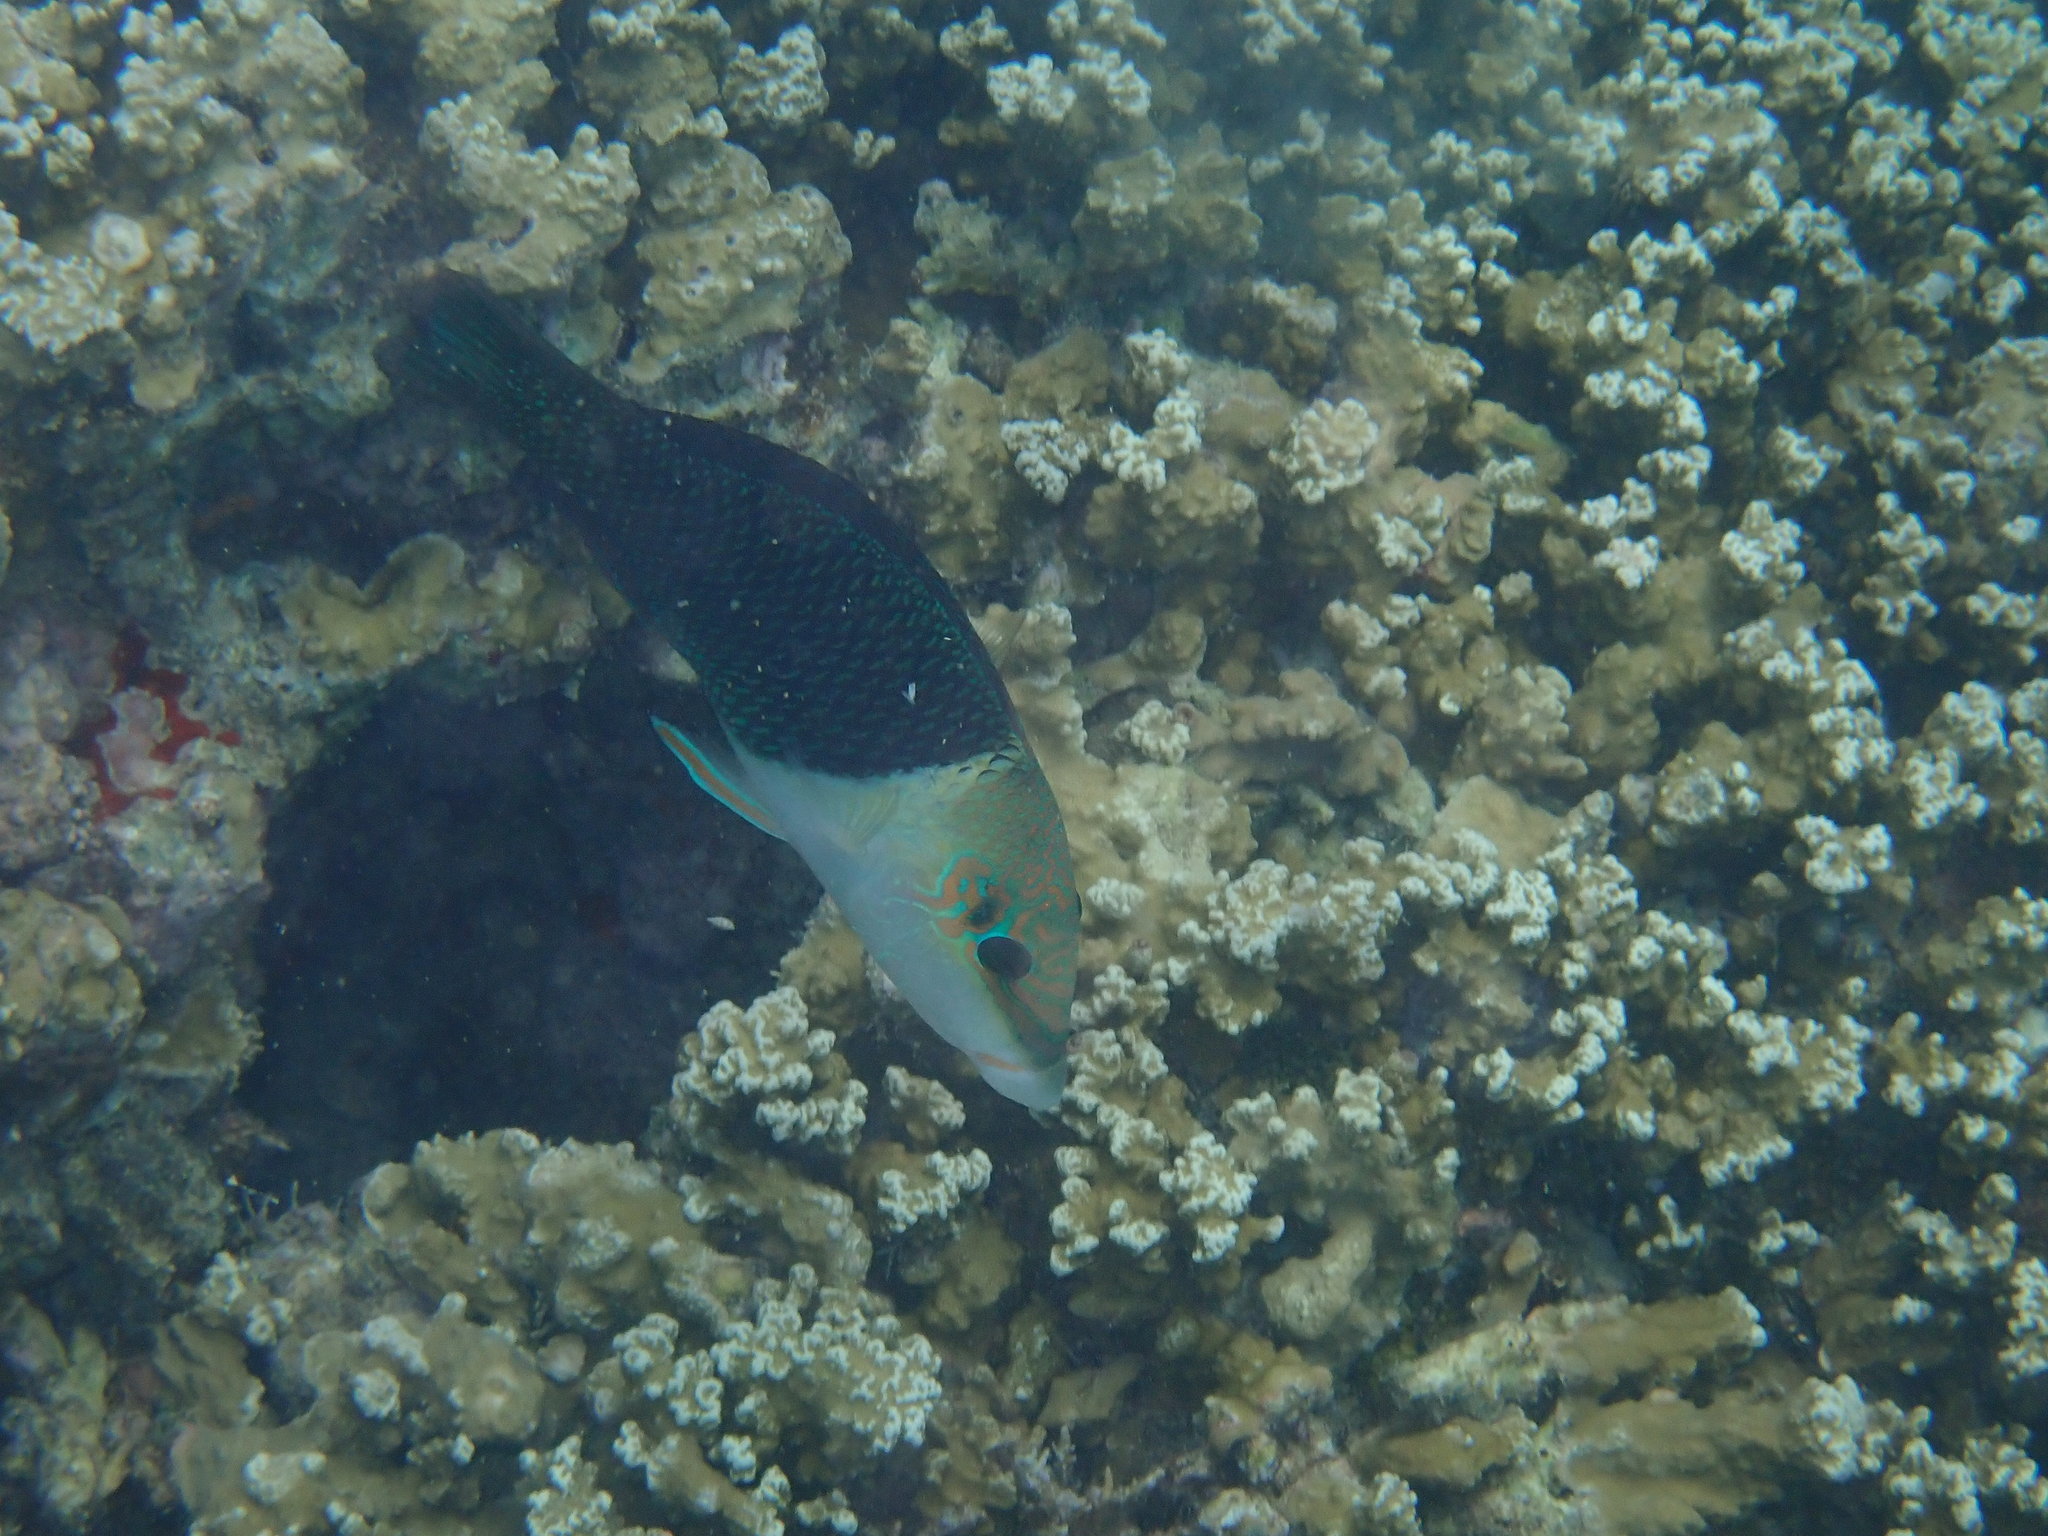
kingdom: Animalia
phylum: Chordata
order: Perciformes
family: Labridae
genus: Hemigymnus
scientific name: Hemigymnus melapterus
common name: Blackeye thicklip
